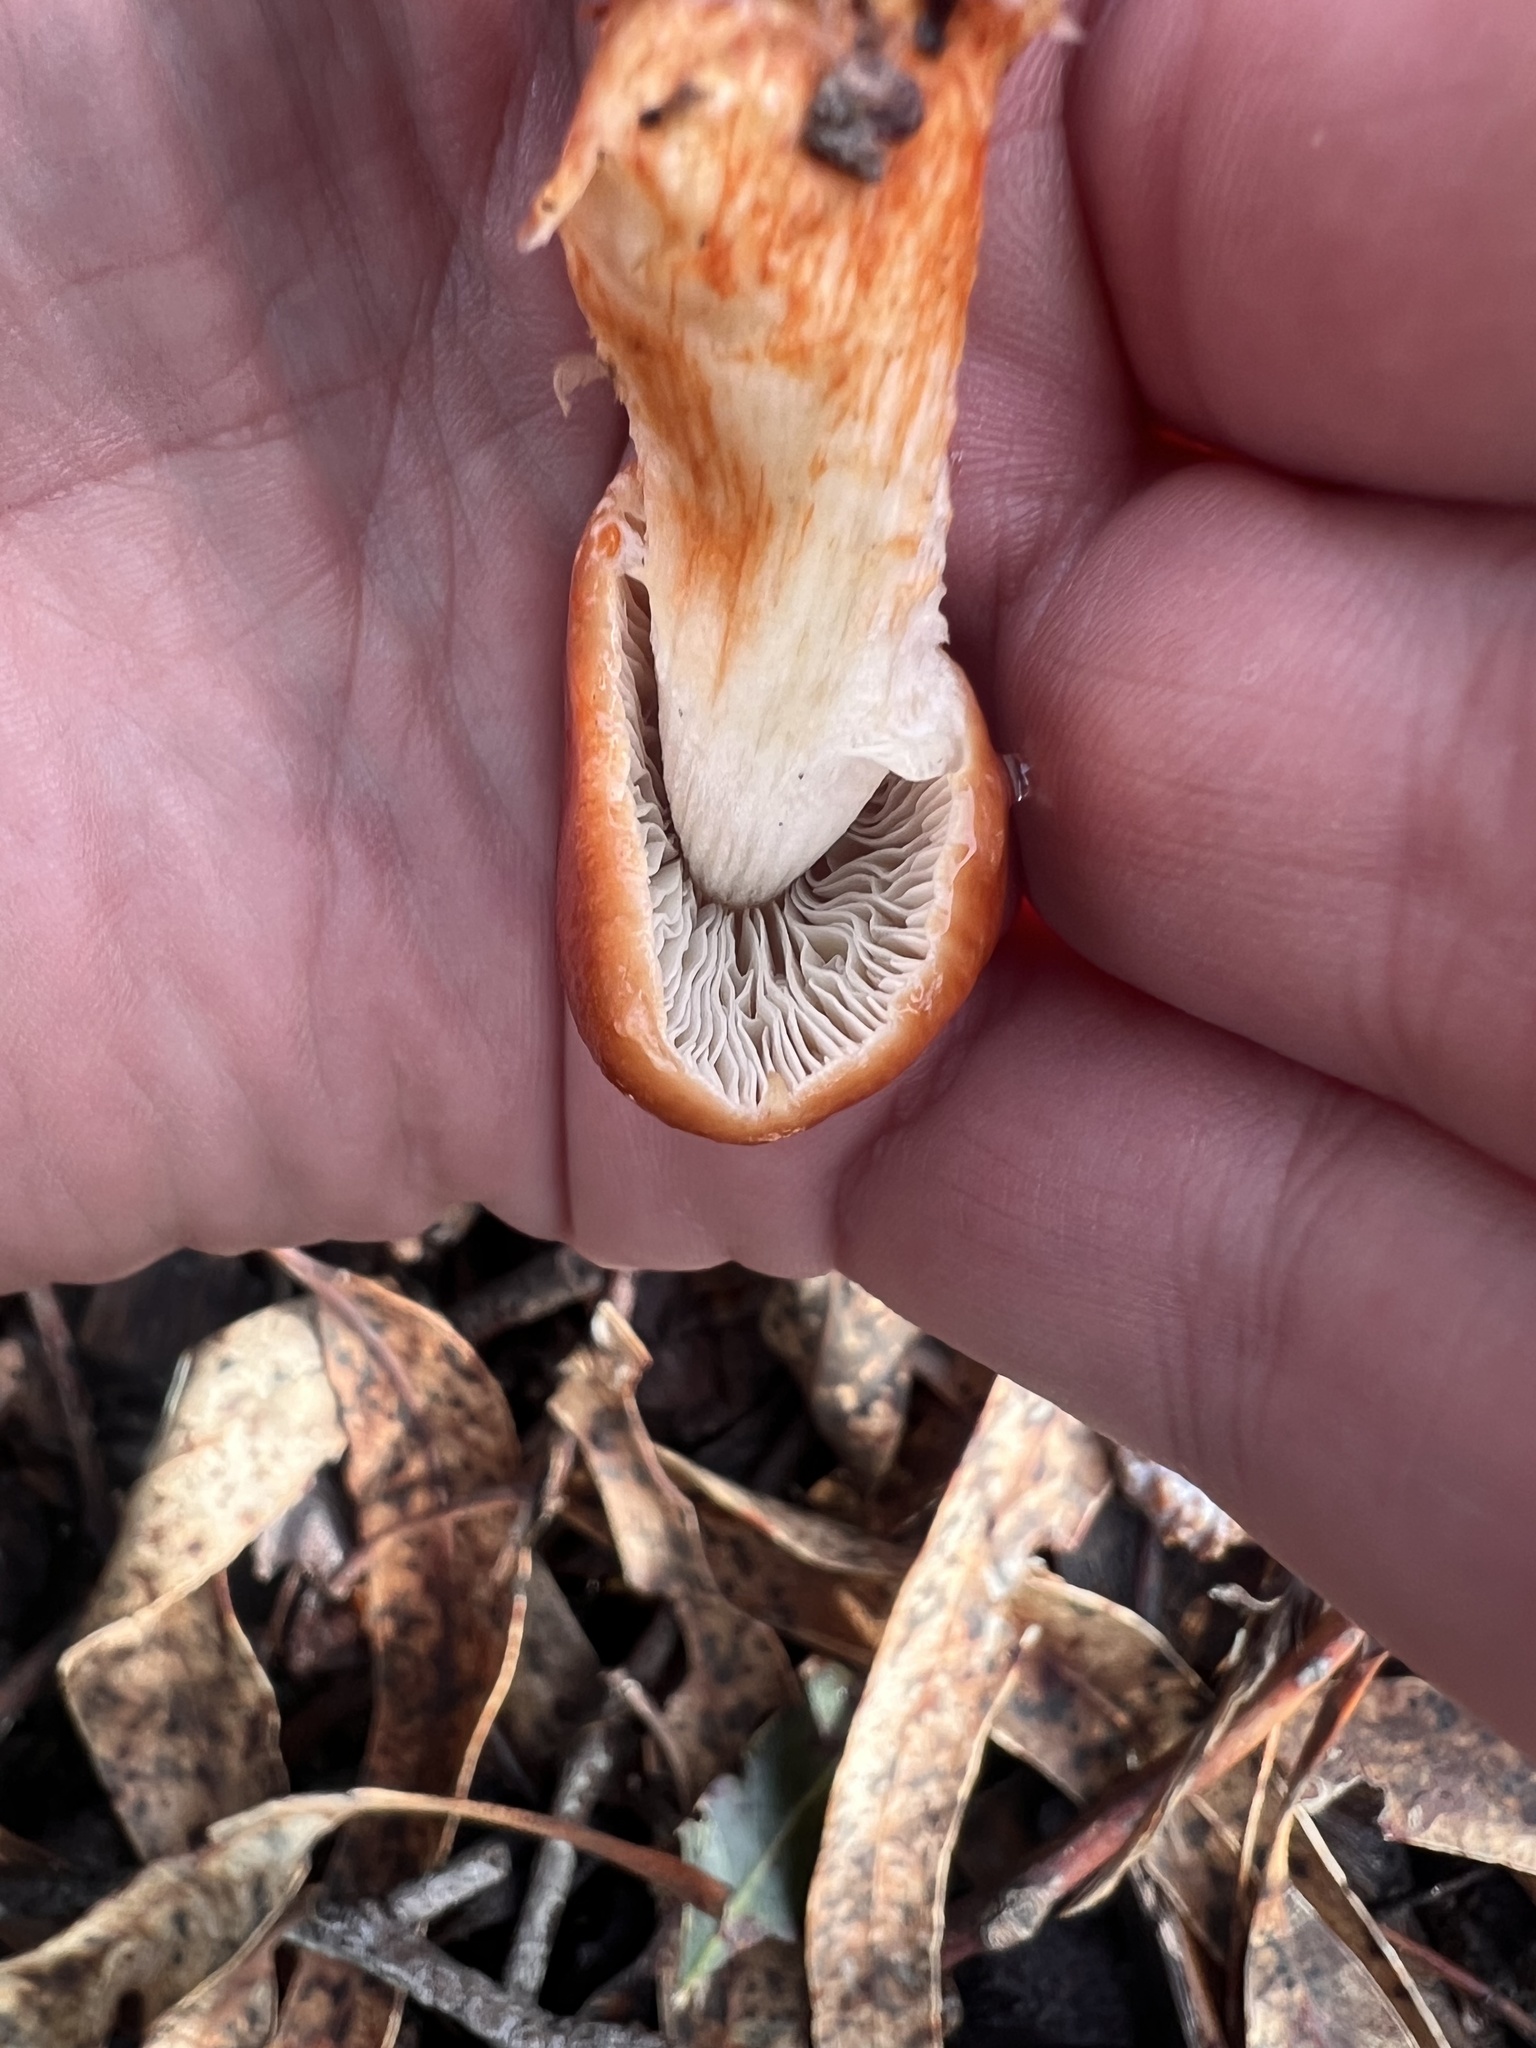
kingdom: Fungi
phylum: Basidiomycota
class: Agaricomycetes
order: Agaricales
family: Strophariaceae
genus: Leratiomyces
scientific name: Leratiomyces ceres
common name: Redlead roundhead
